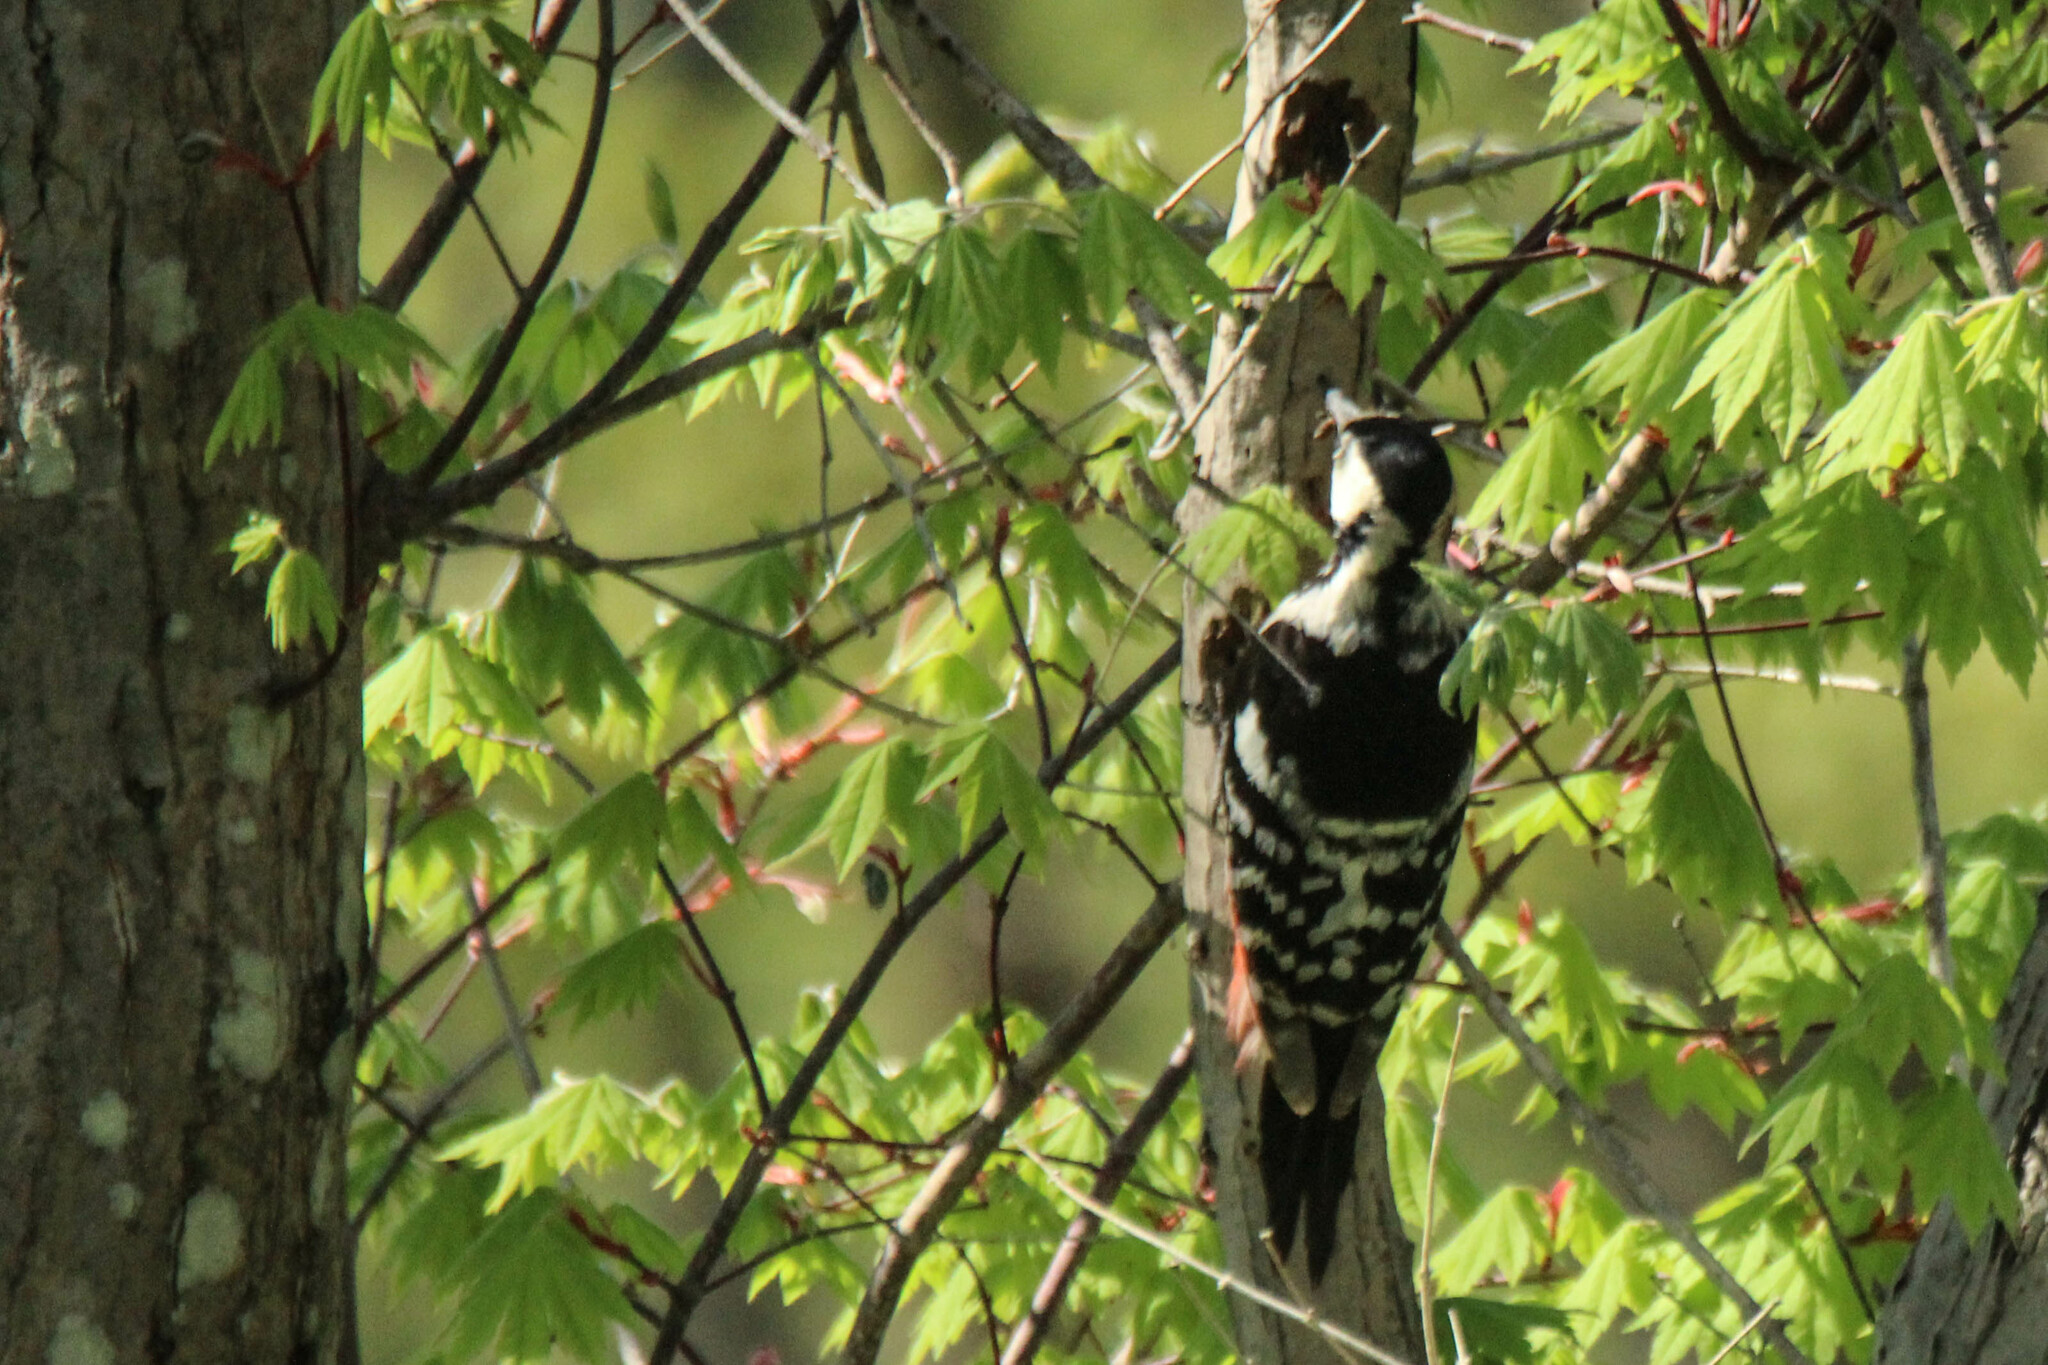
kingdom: Animalia
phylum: Chordata
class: Aves
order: Piciformes
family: Picidae
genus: Dendrocopos
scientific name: Dendrocopos leucotos
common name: White-backed woodpecker
